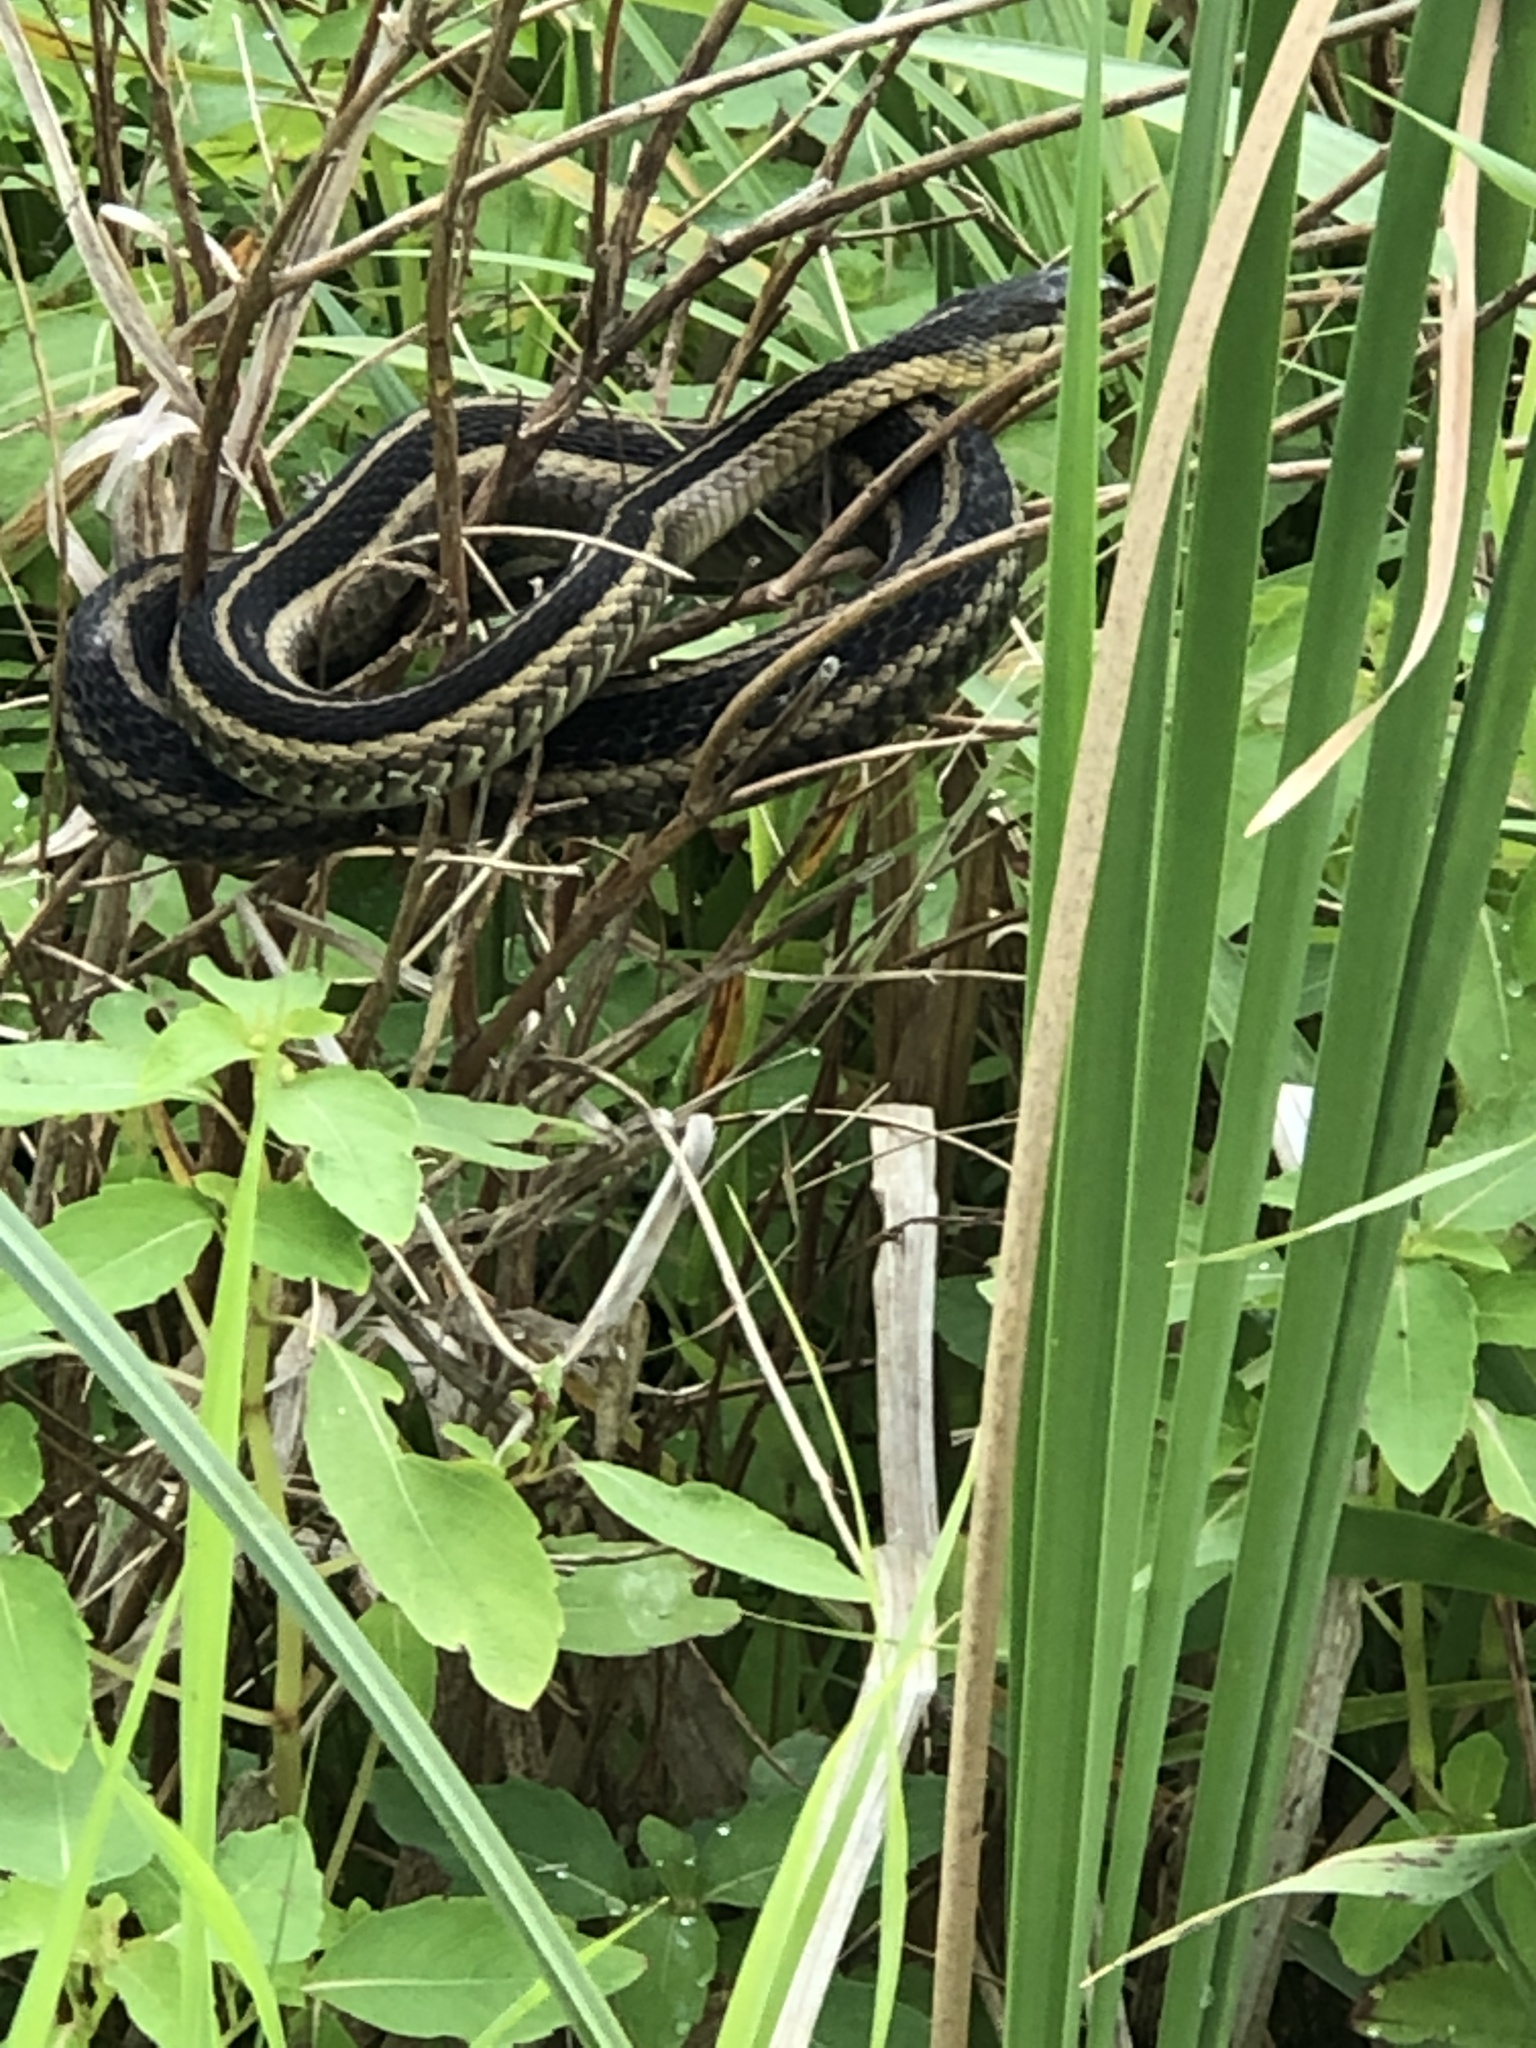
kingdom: Animalia
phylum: Chordata
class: Squamata
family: Colubridae
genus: Thamnophis
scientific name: Thamnophis sirtalis
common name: Common garter snake
